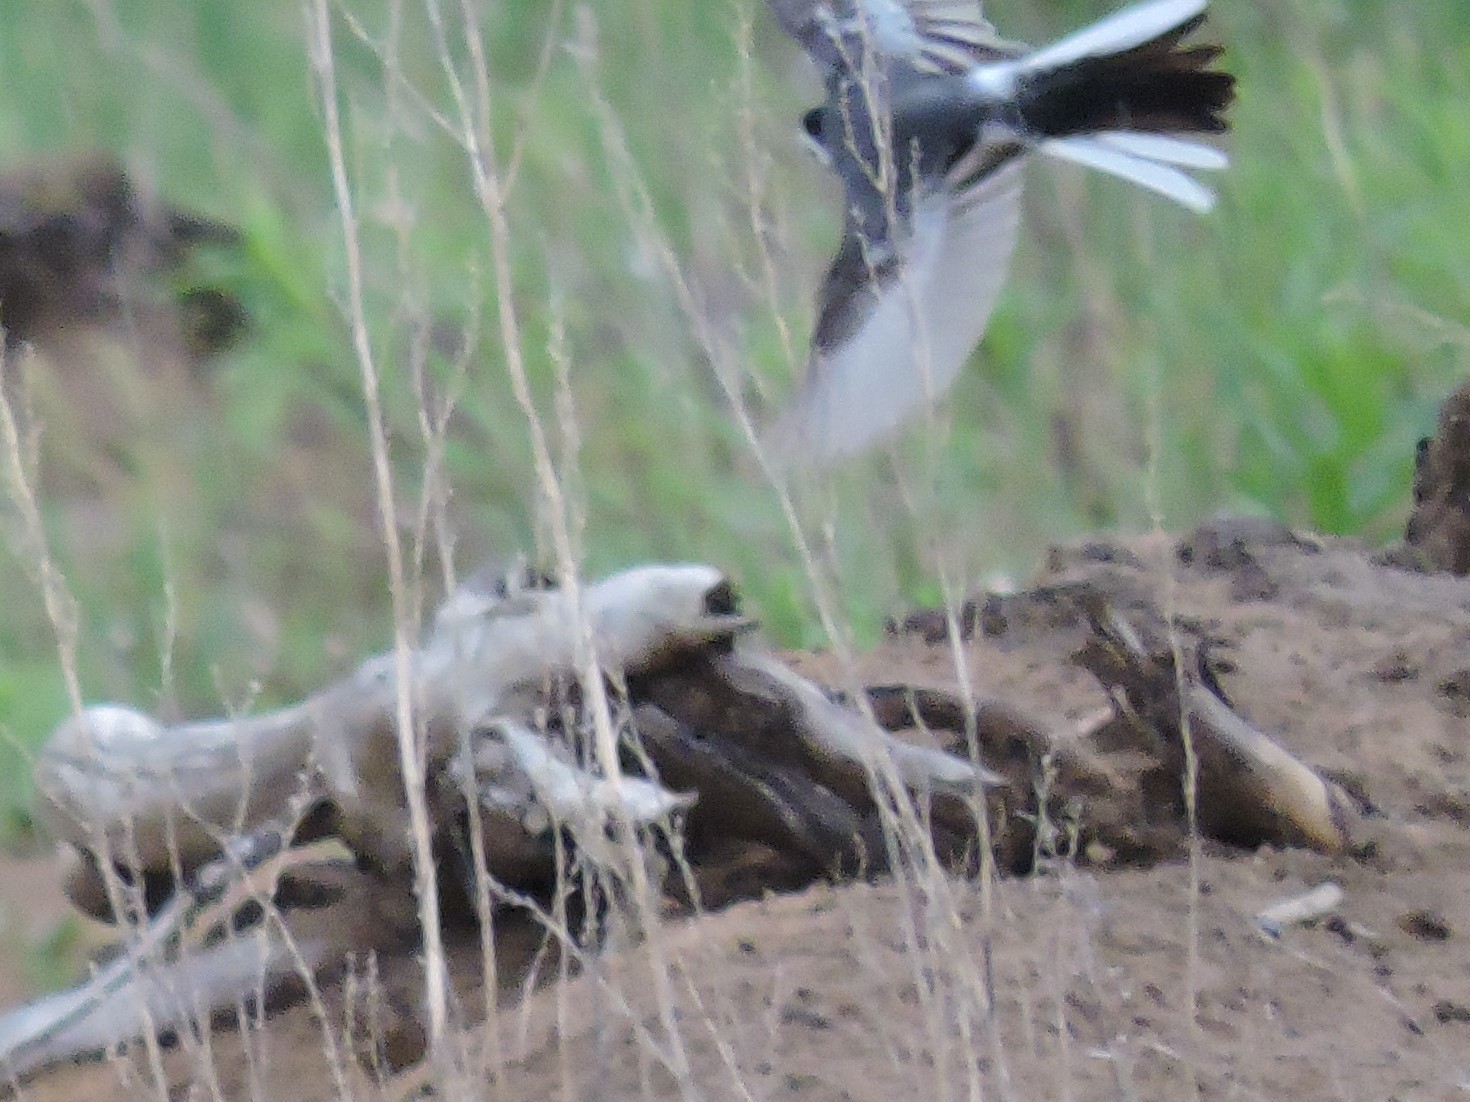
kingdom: Animalia
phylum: Chordata
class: Aves
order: Passeriformes
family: Motacillidae
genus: Motacilla
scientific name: Motacilla alba
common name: White wagtail
